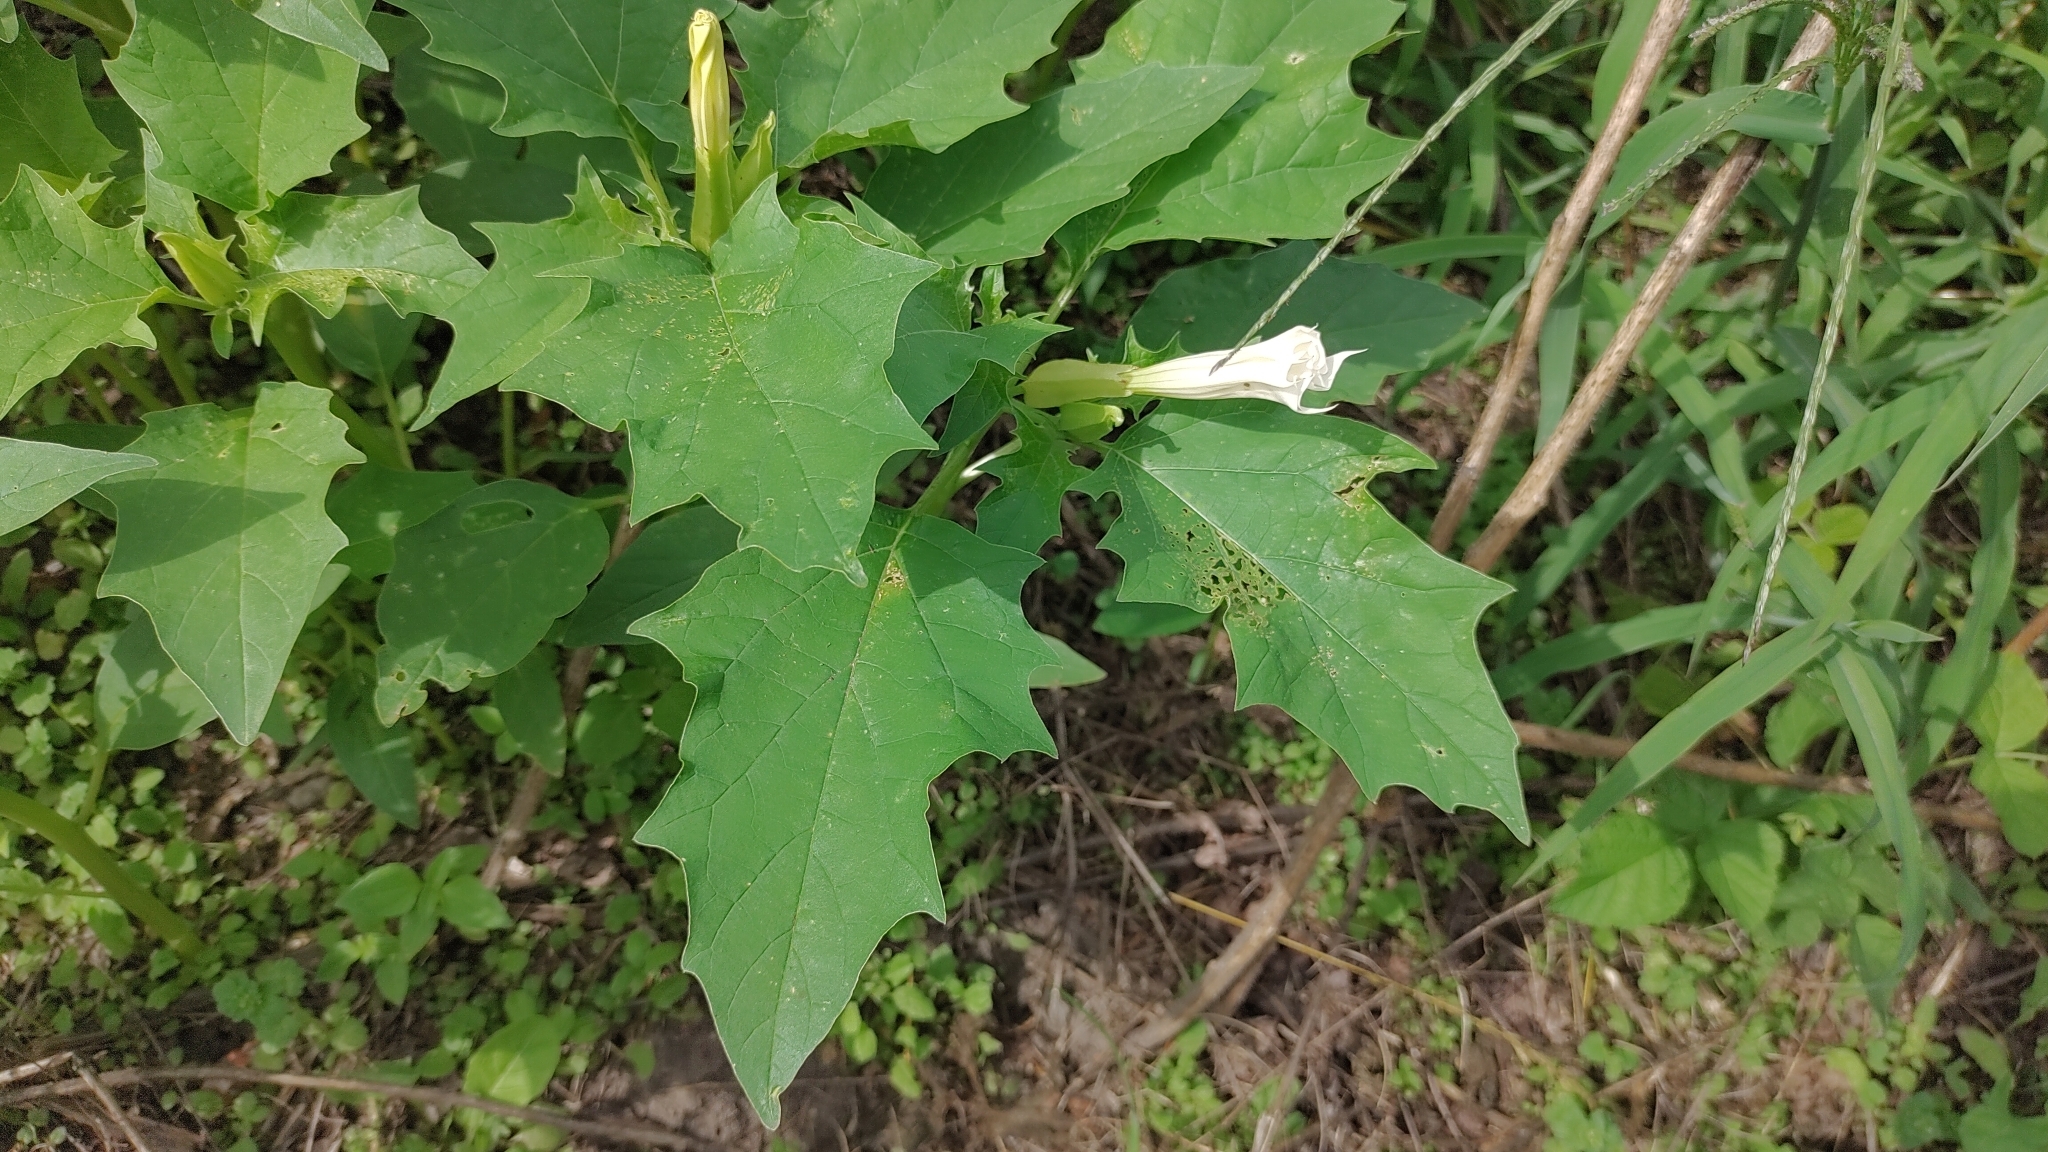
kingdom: Plantae
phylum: Tracheophyta
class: Magnoliopsida
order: Solanales
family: Solanaceae
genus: Datura
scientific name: Datura stramonium
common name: Thorn-apple
